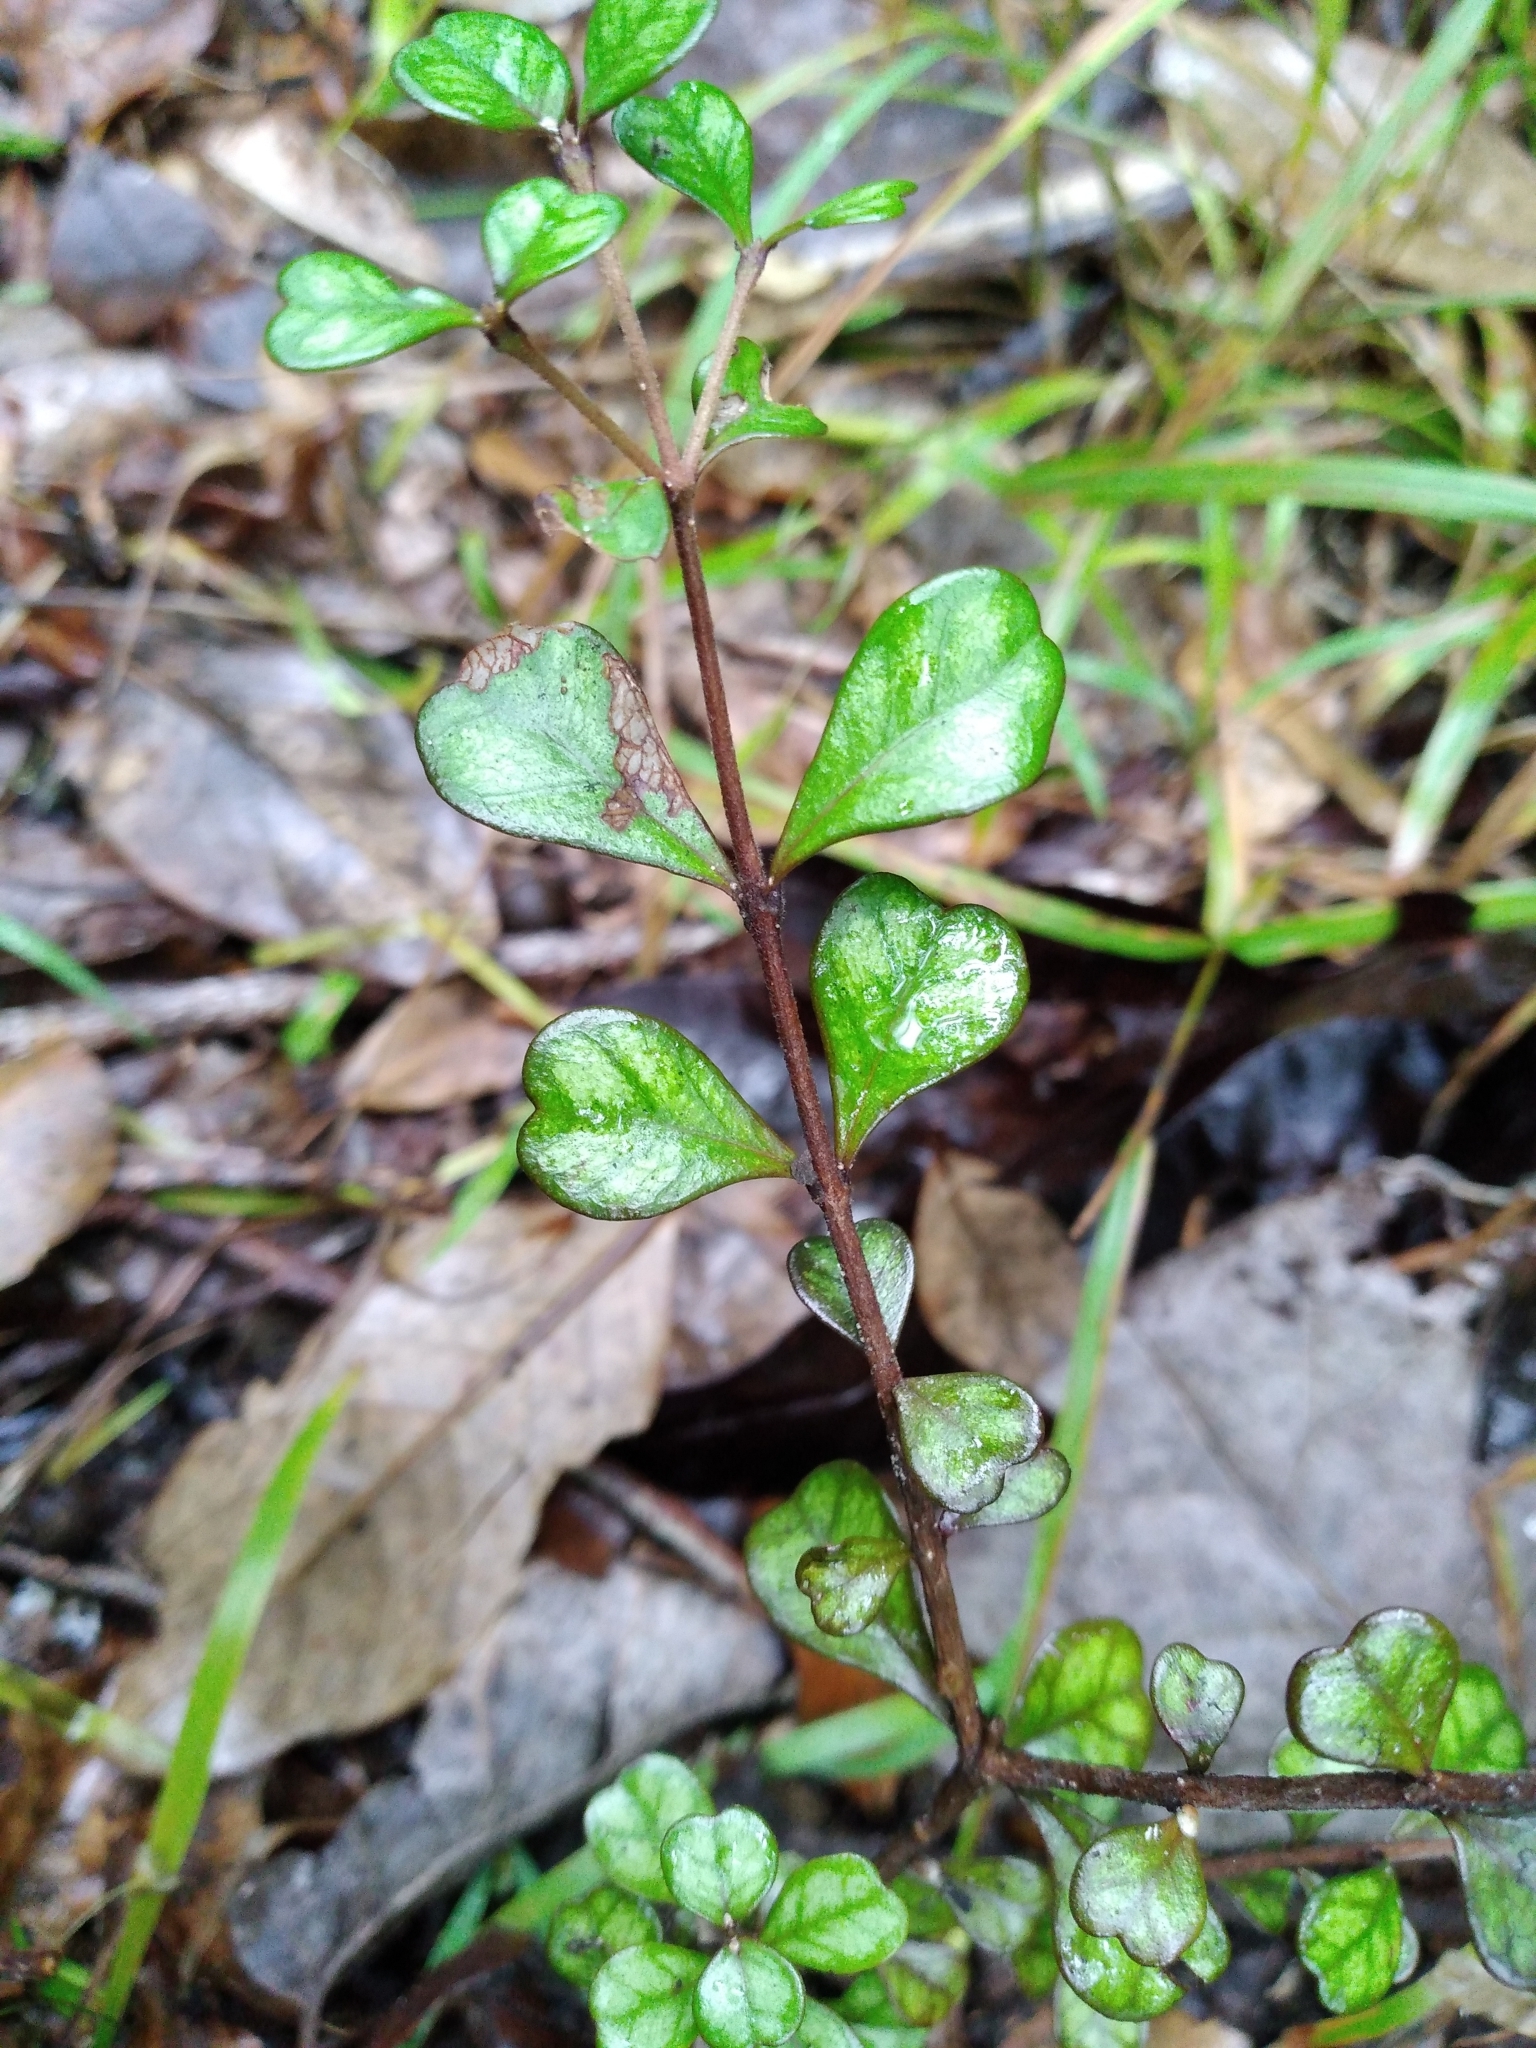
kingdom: Plantae
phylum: Tracheophyta
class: Magnoliopsida
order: Myrtales
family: Myrtaceae
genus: Lophomyrtus
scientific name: Lophomyrtus obcordata
